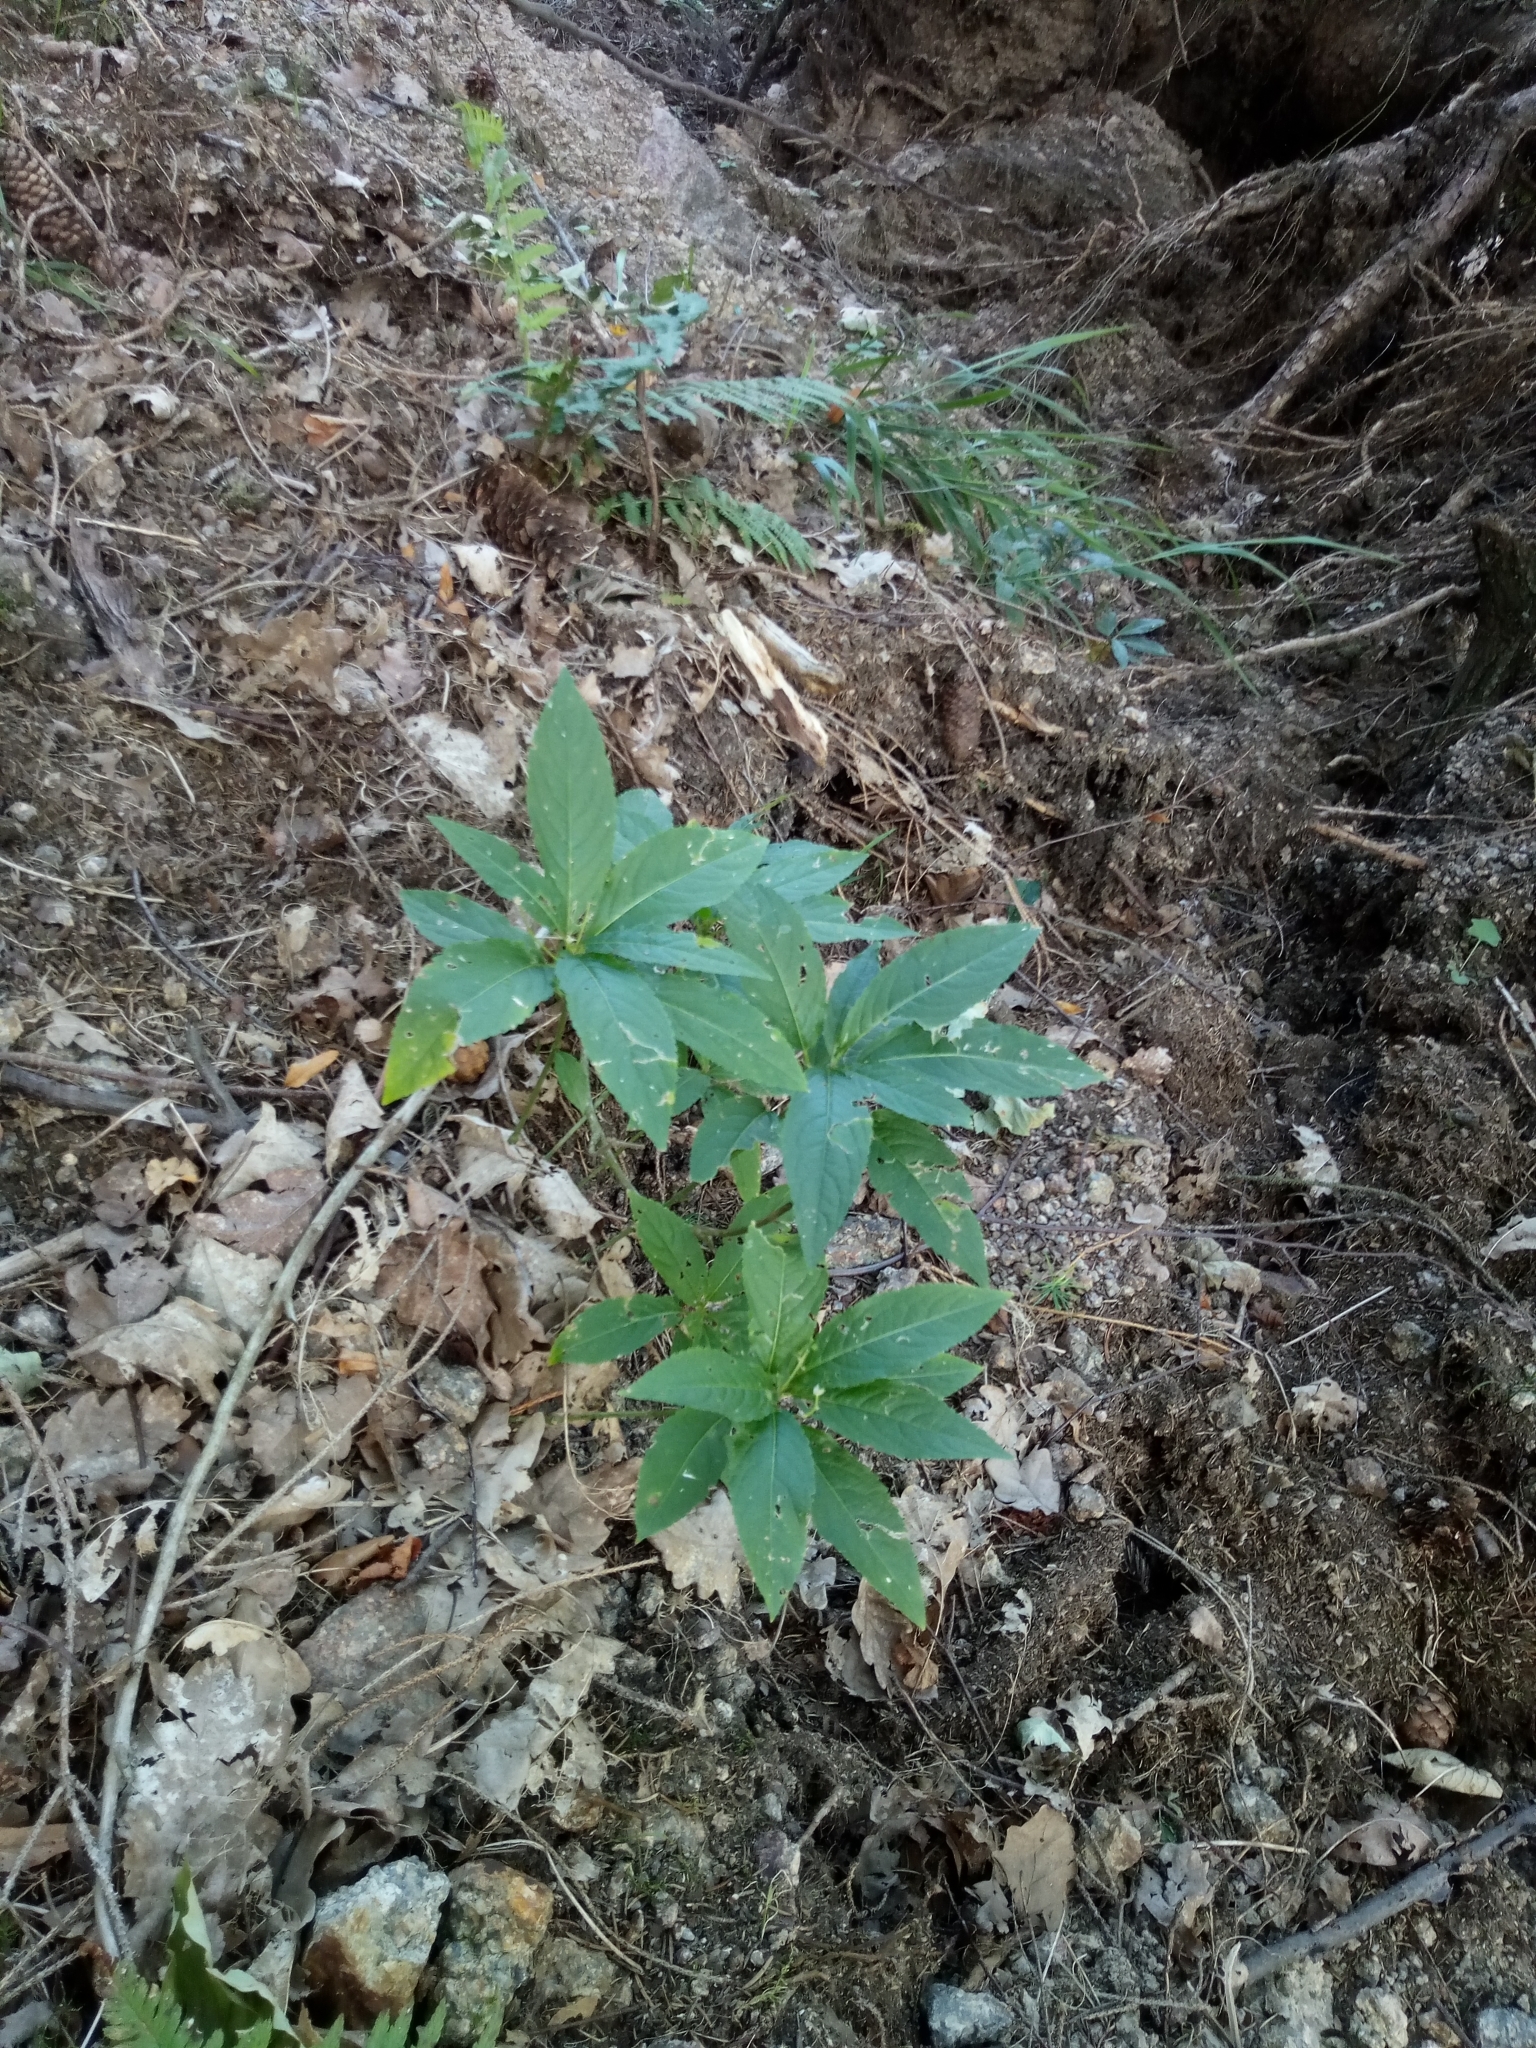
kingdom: Plantae
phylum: Tracheophyta
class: Magnoliopsida
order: Malpighiales
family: Euphorbiaceae
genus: Mercurialis
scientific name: Mercurialis perennis
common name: Dog mercury
